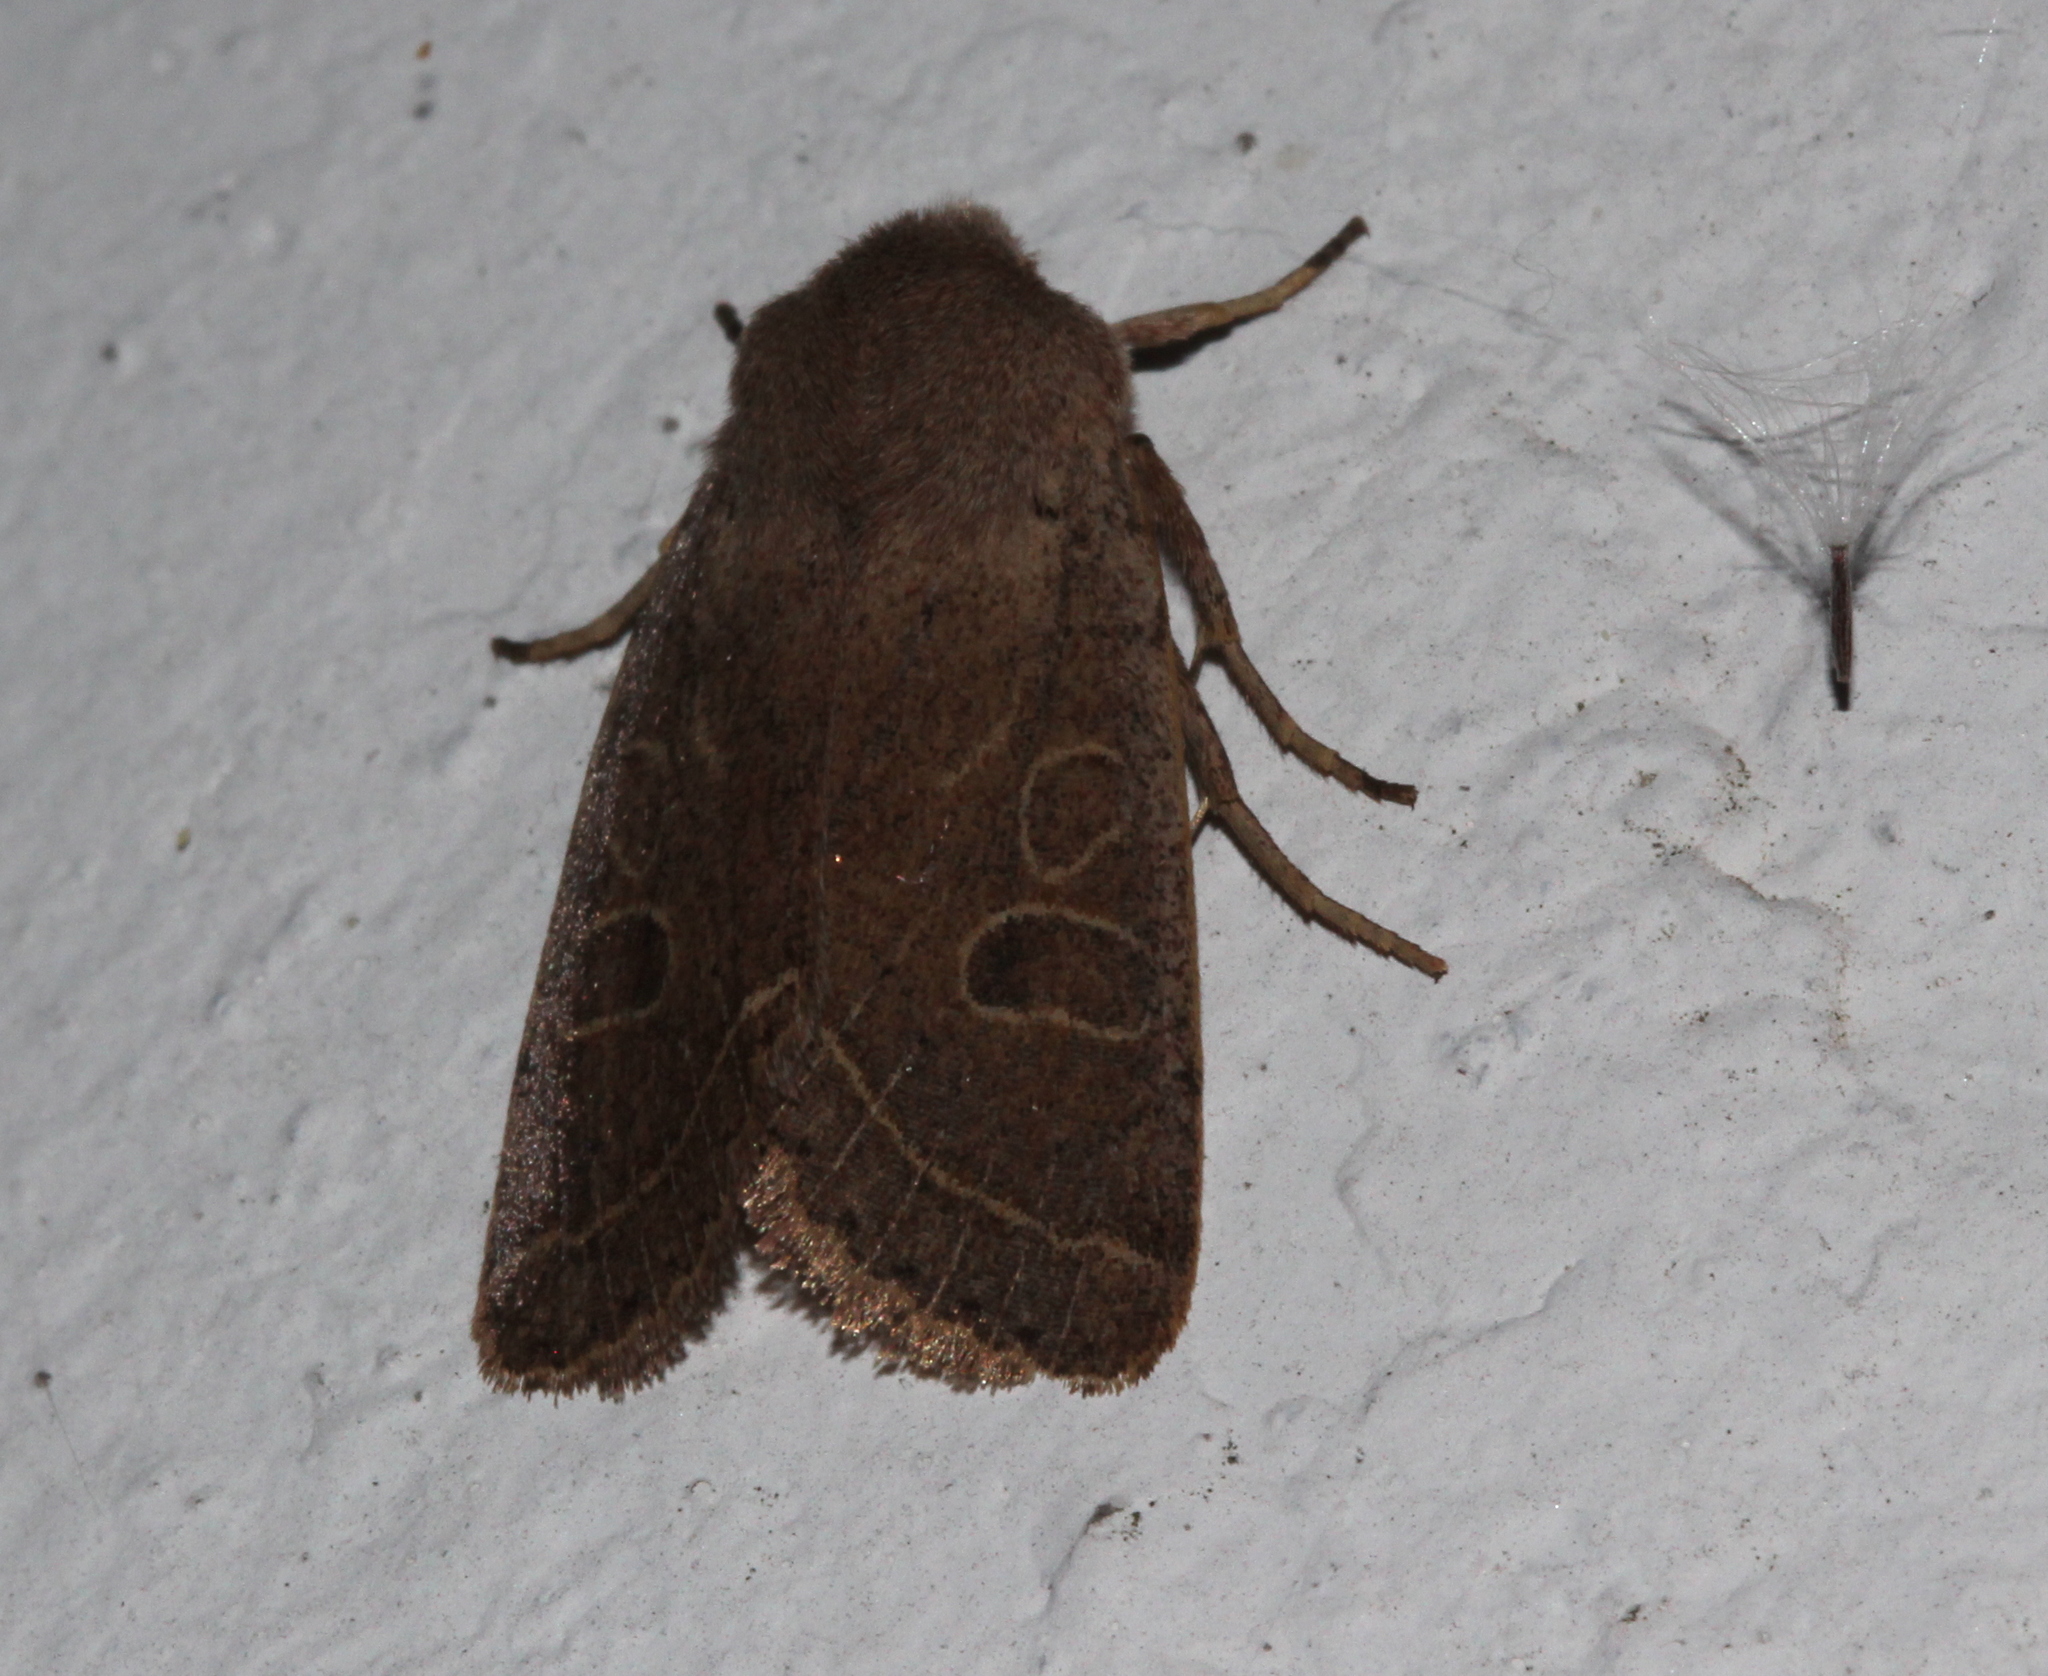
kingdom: Animalia
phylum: Arthropoda
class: Insecta
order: Lepidoptera
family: Noctuidae
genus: Orthosia
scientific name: Orthosia cerasi
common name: Common quaker
